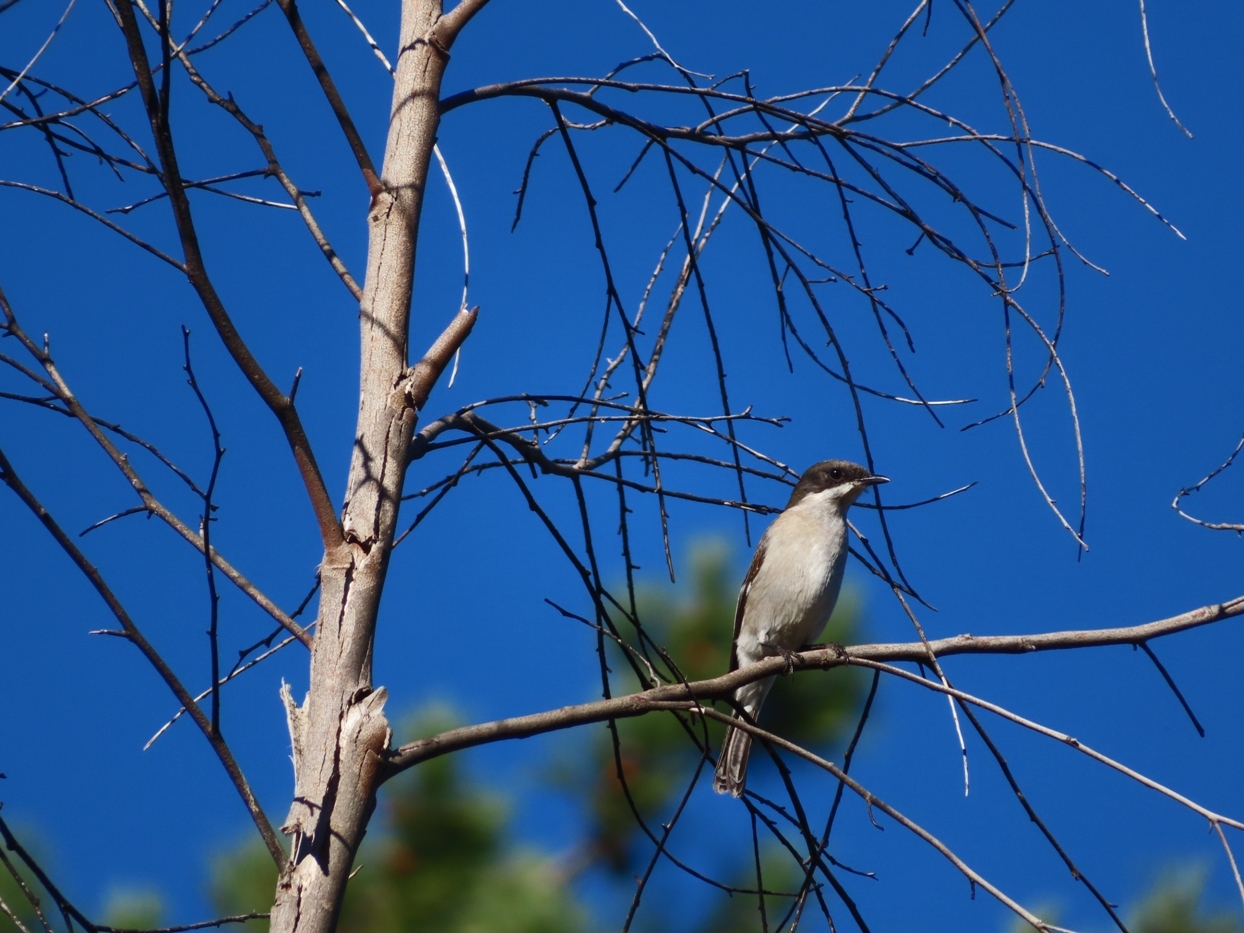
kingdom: Animalia
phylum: Chordata
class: Aves
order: Passeriformes
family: Muscicapidae
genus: Sigelus
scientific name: Sigelus silens
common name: Fiscal flycatcher
